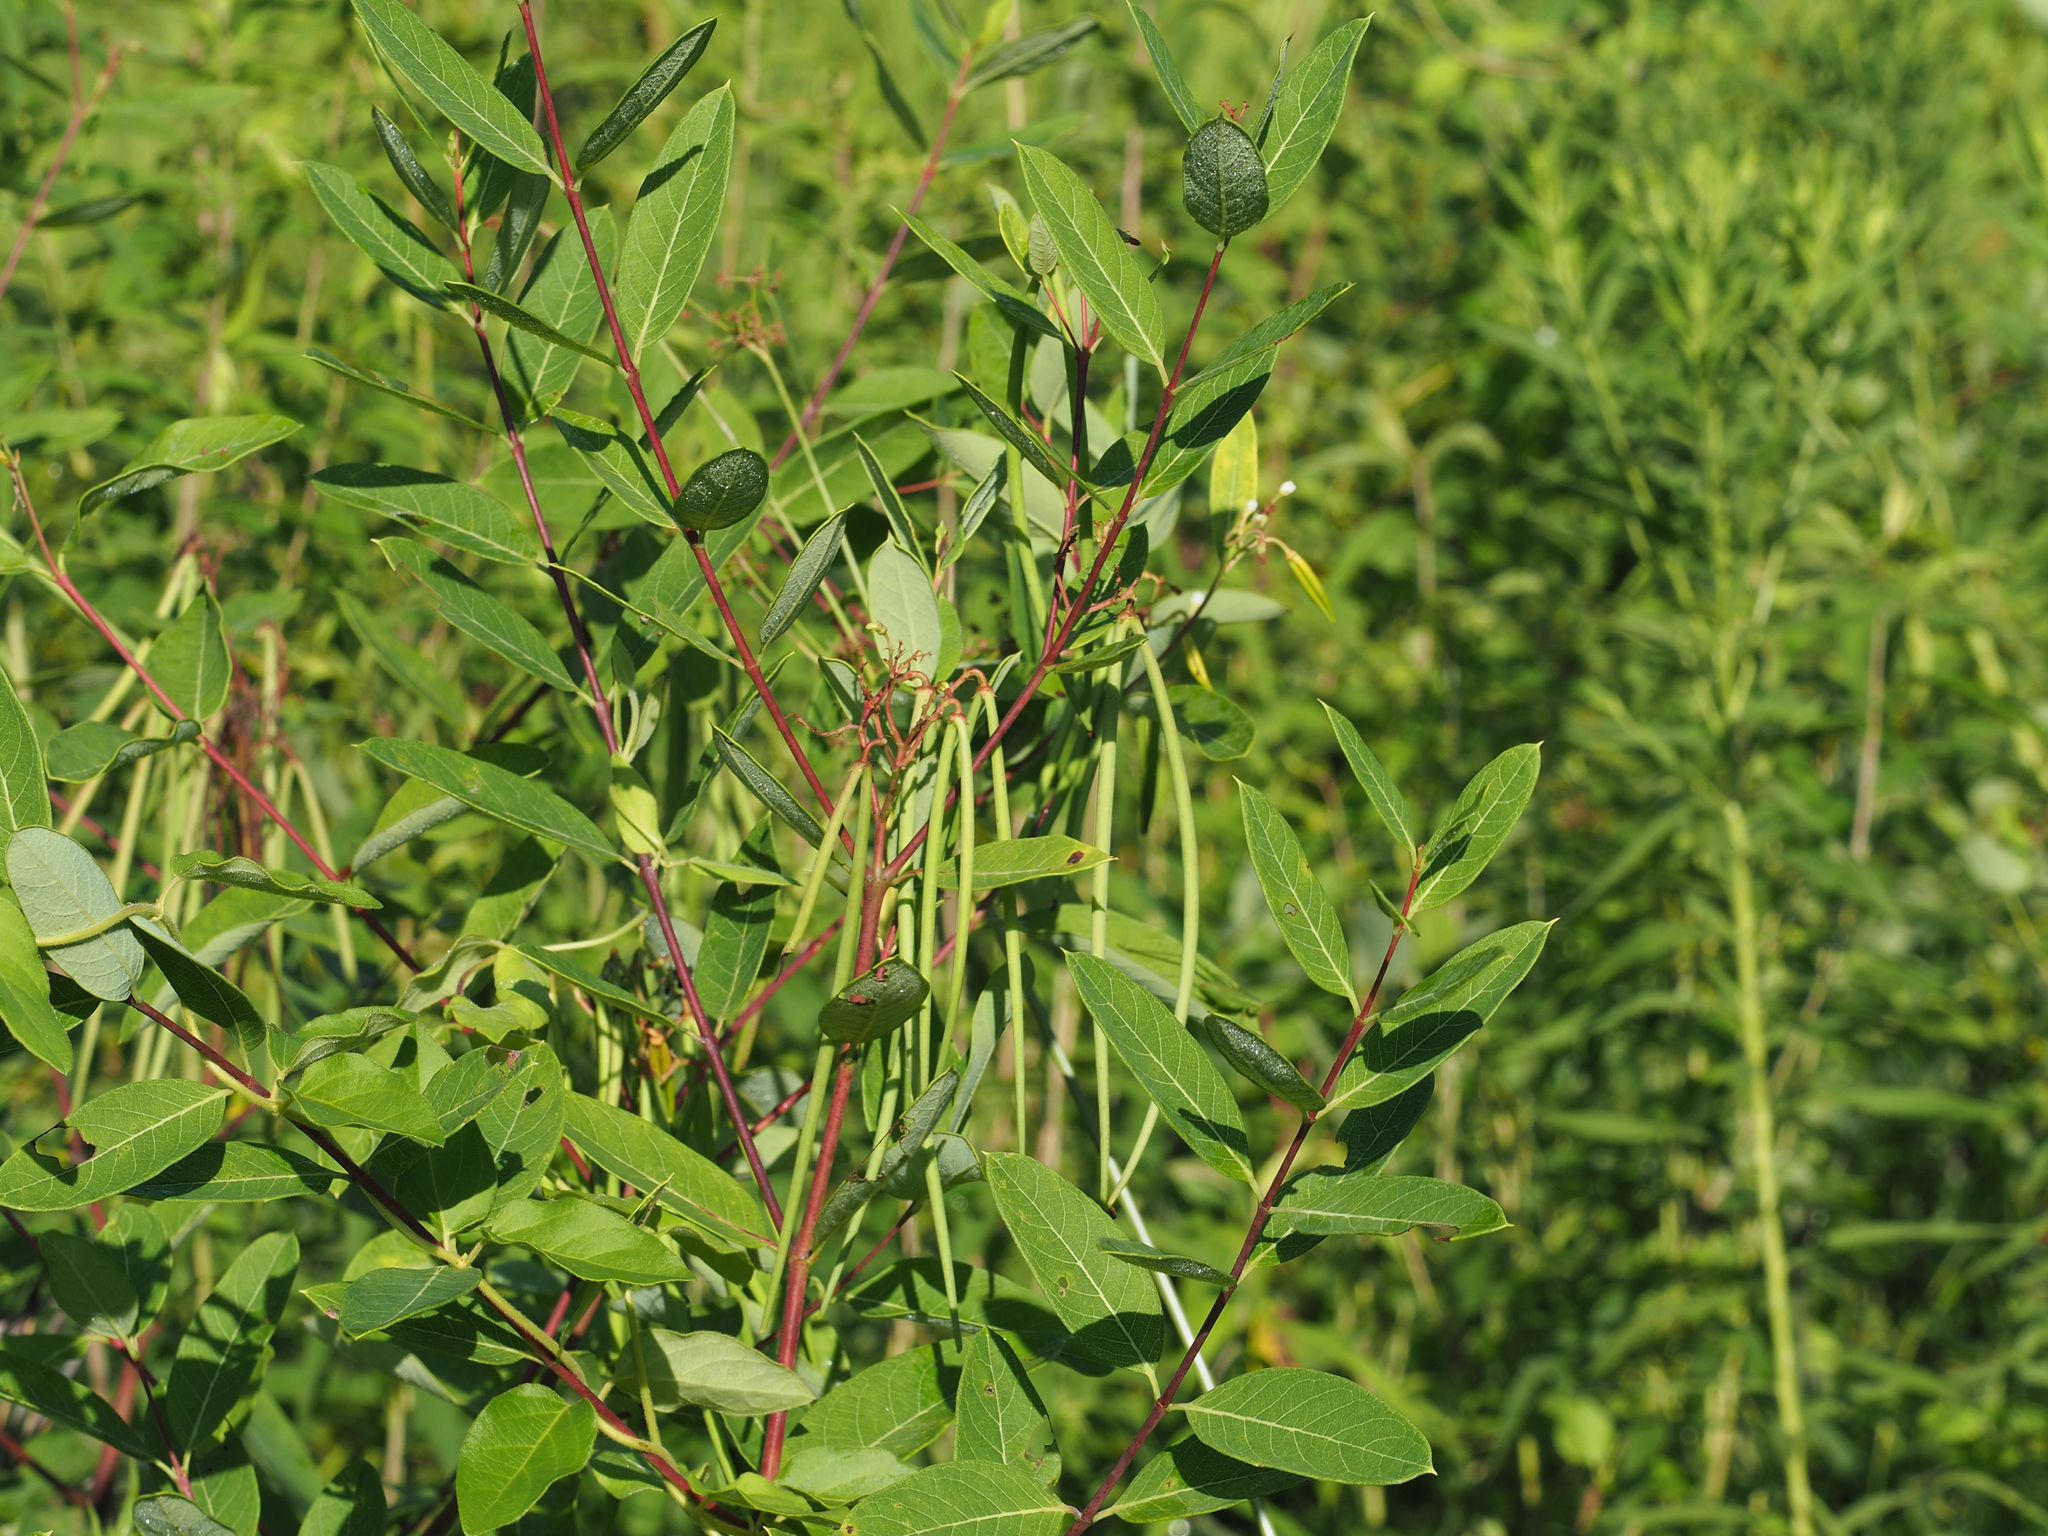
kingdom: Plantae
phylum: Tracheophyta
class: Magnoliopsida
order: Gentianales
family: Apocynaceae
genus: Apocynum
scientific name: Apocynum cannabinum
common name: Hemp dogbane
